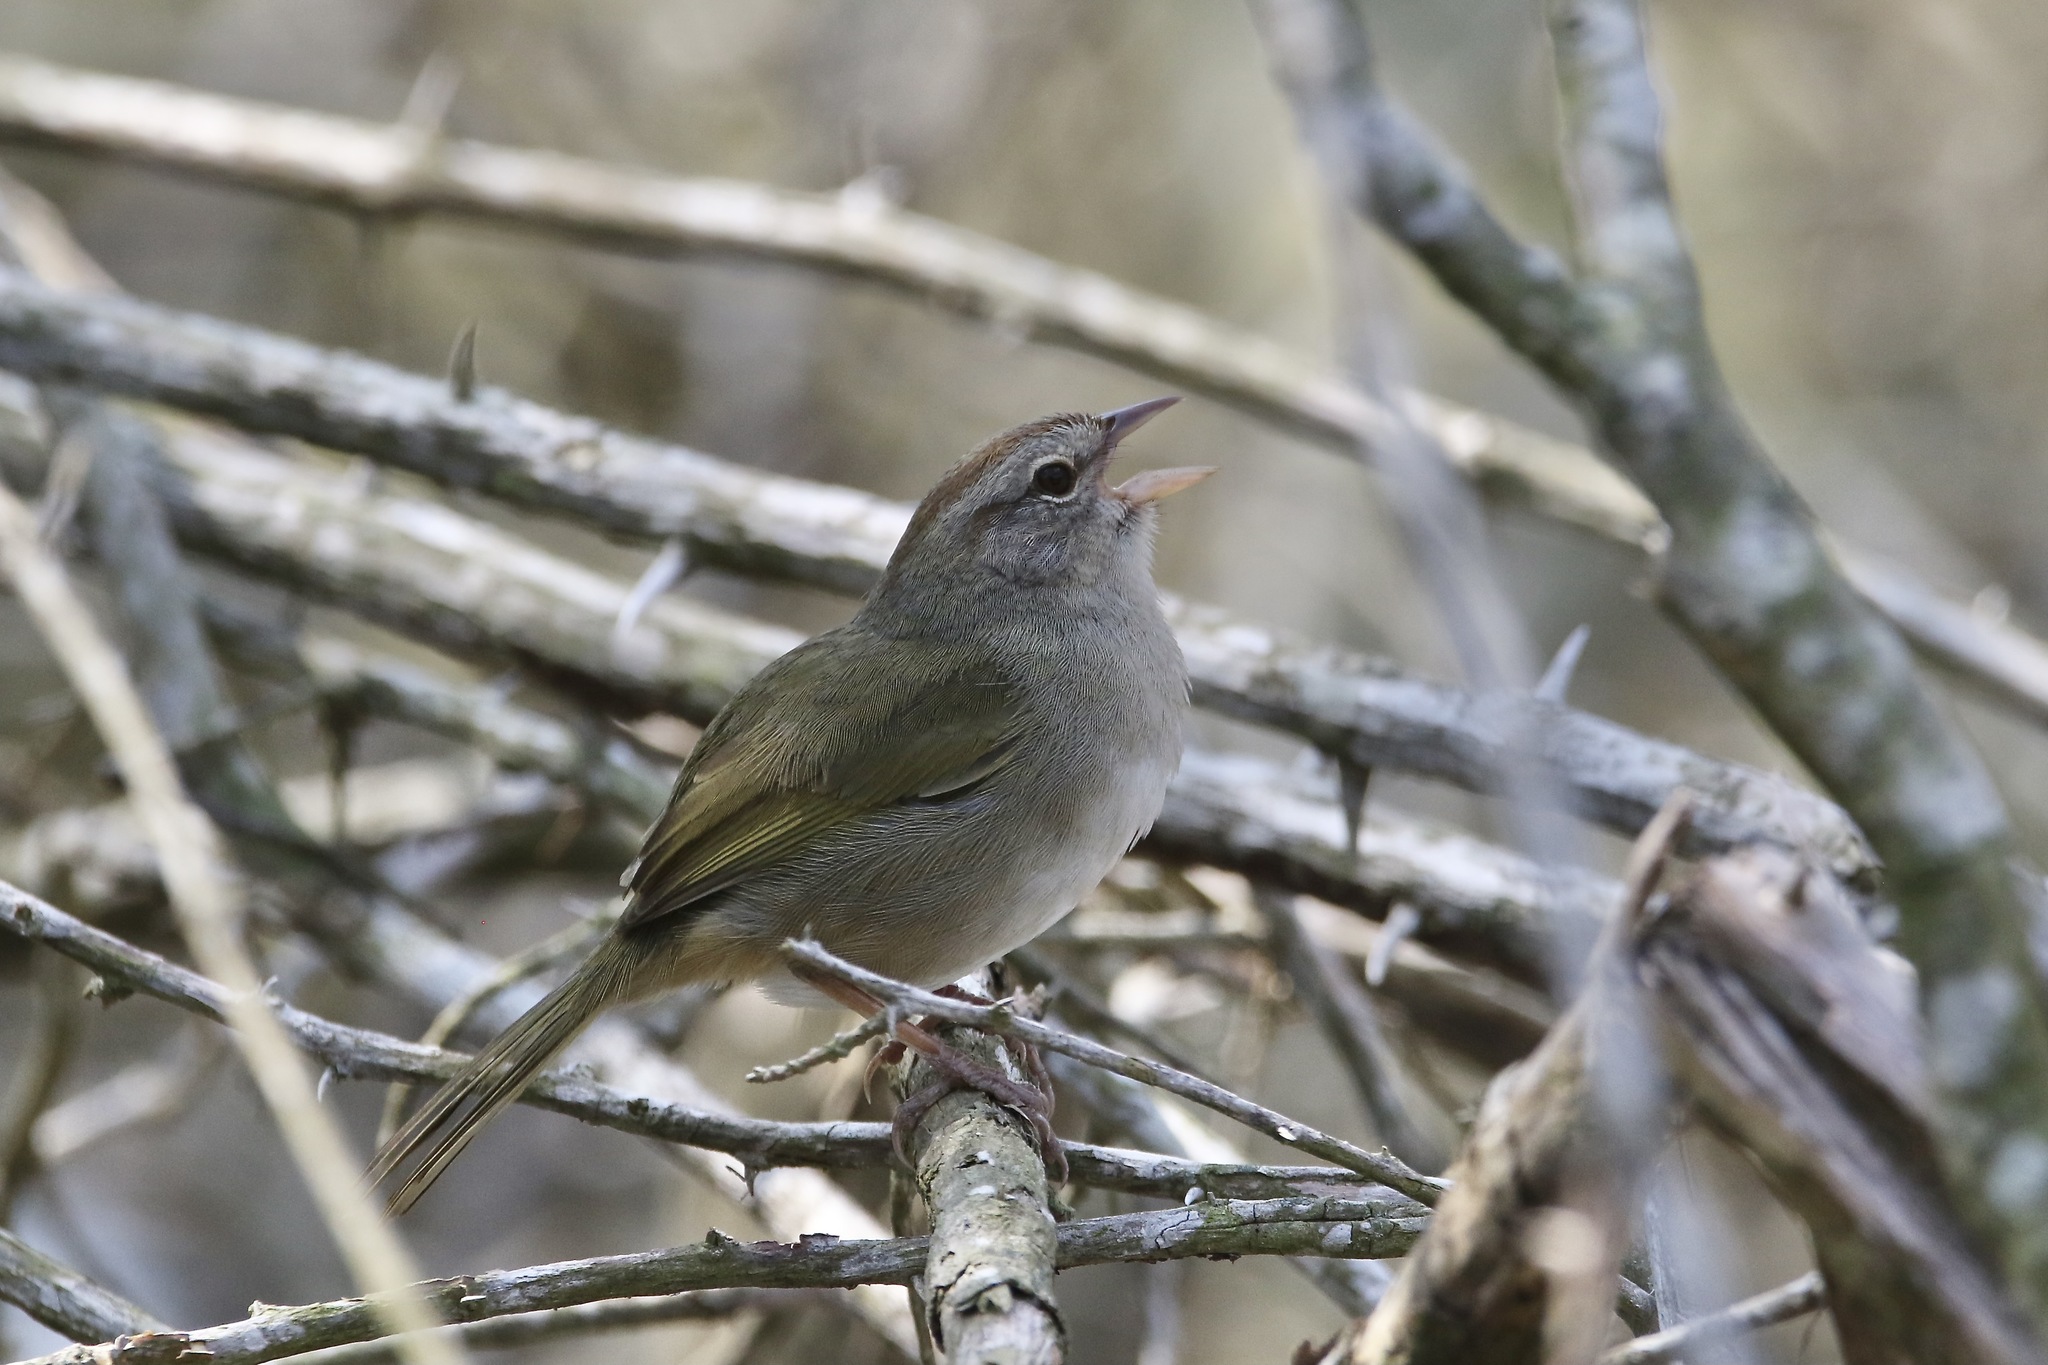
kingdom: Animalia
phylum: Chordata
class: Aves
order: Passeriformes
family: Passerellidae
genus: Arremonops
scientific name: Arremonops rufivirgatus
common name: Olive sparrow
